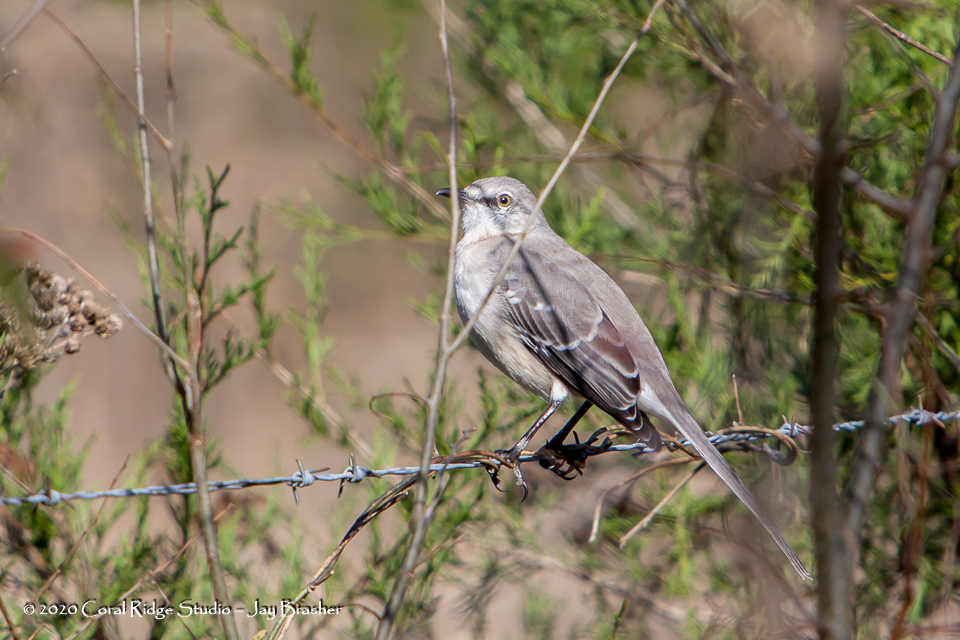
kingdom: Animalia
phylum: Chordata
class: Aves
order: Passeriformes
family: Mimidae
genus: Mimus
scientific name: Mimus polyglottos
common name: Northern mockingbird
